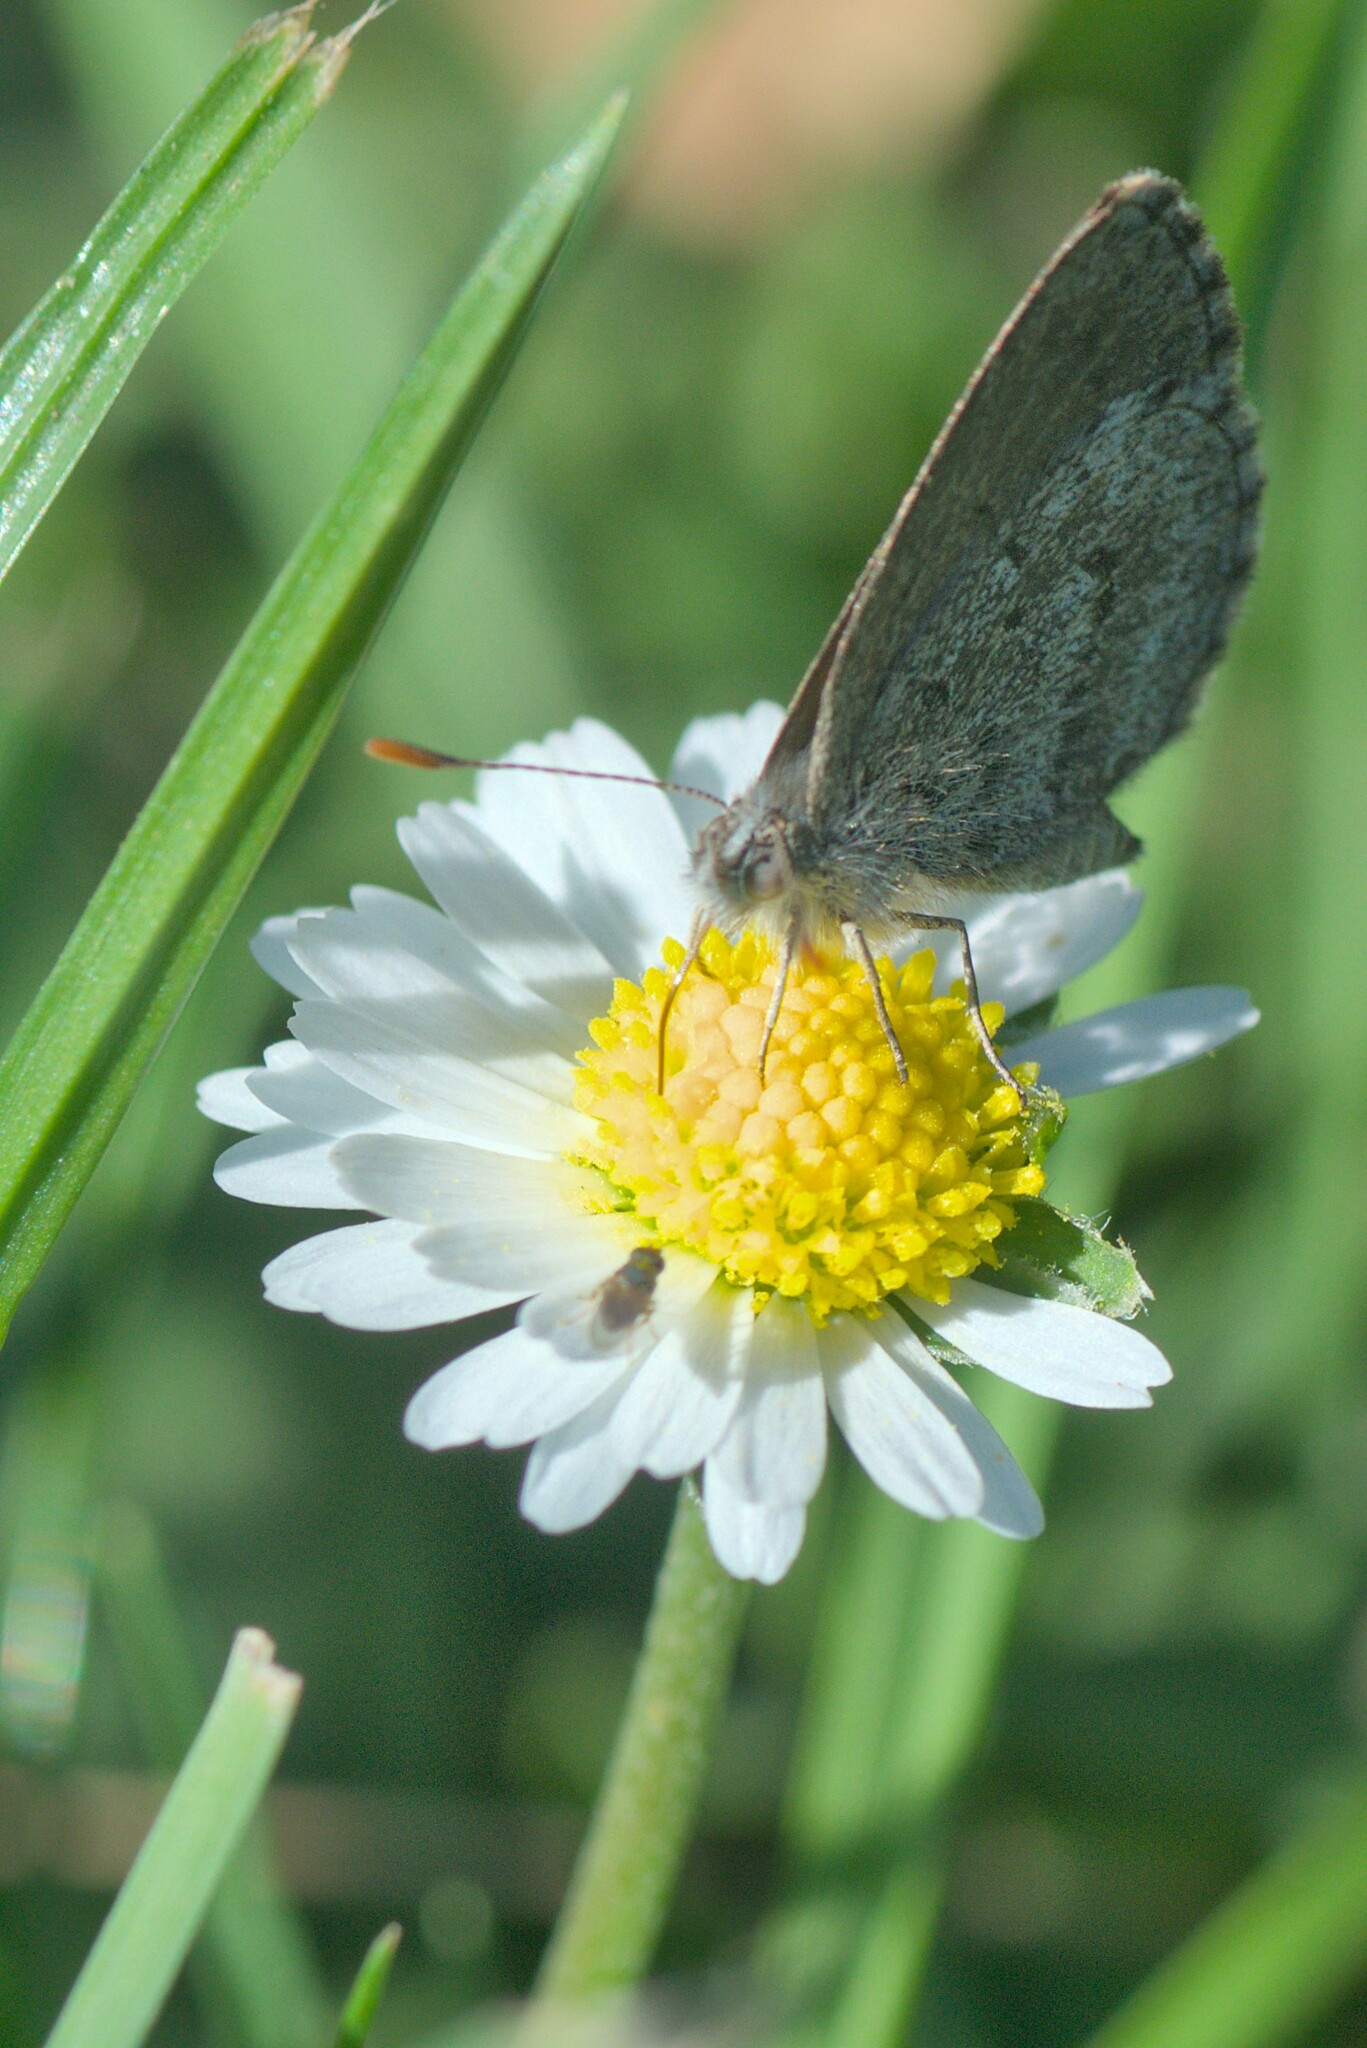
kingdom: Animalia
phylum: Arthropoda
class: Insecta
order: Lepidoptera
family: Lycaenidae
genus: Zizina
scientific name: Zizina oxleyi
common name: Southern blue
